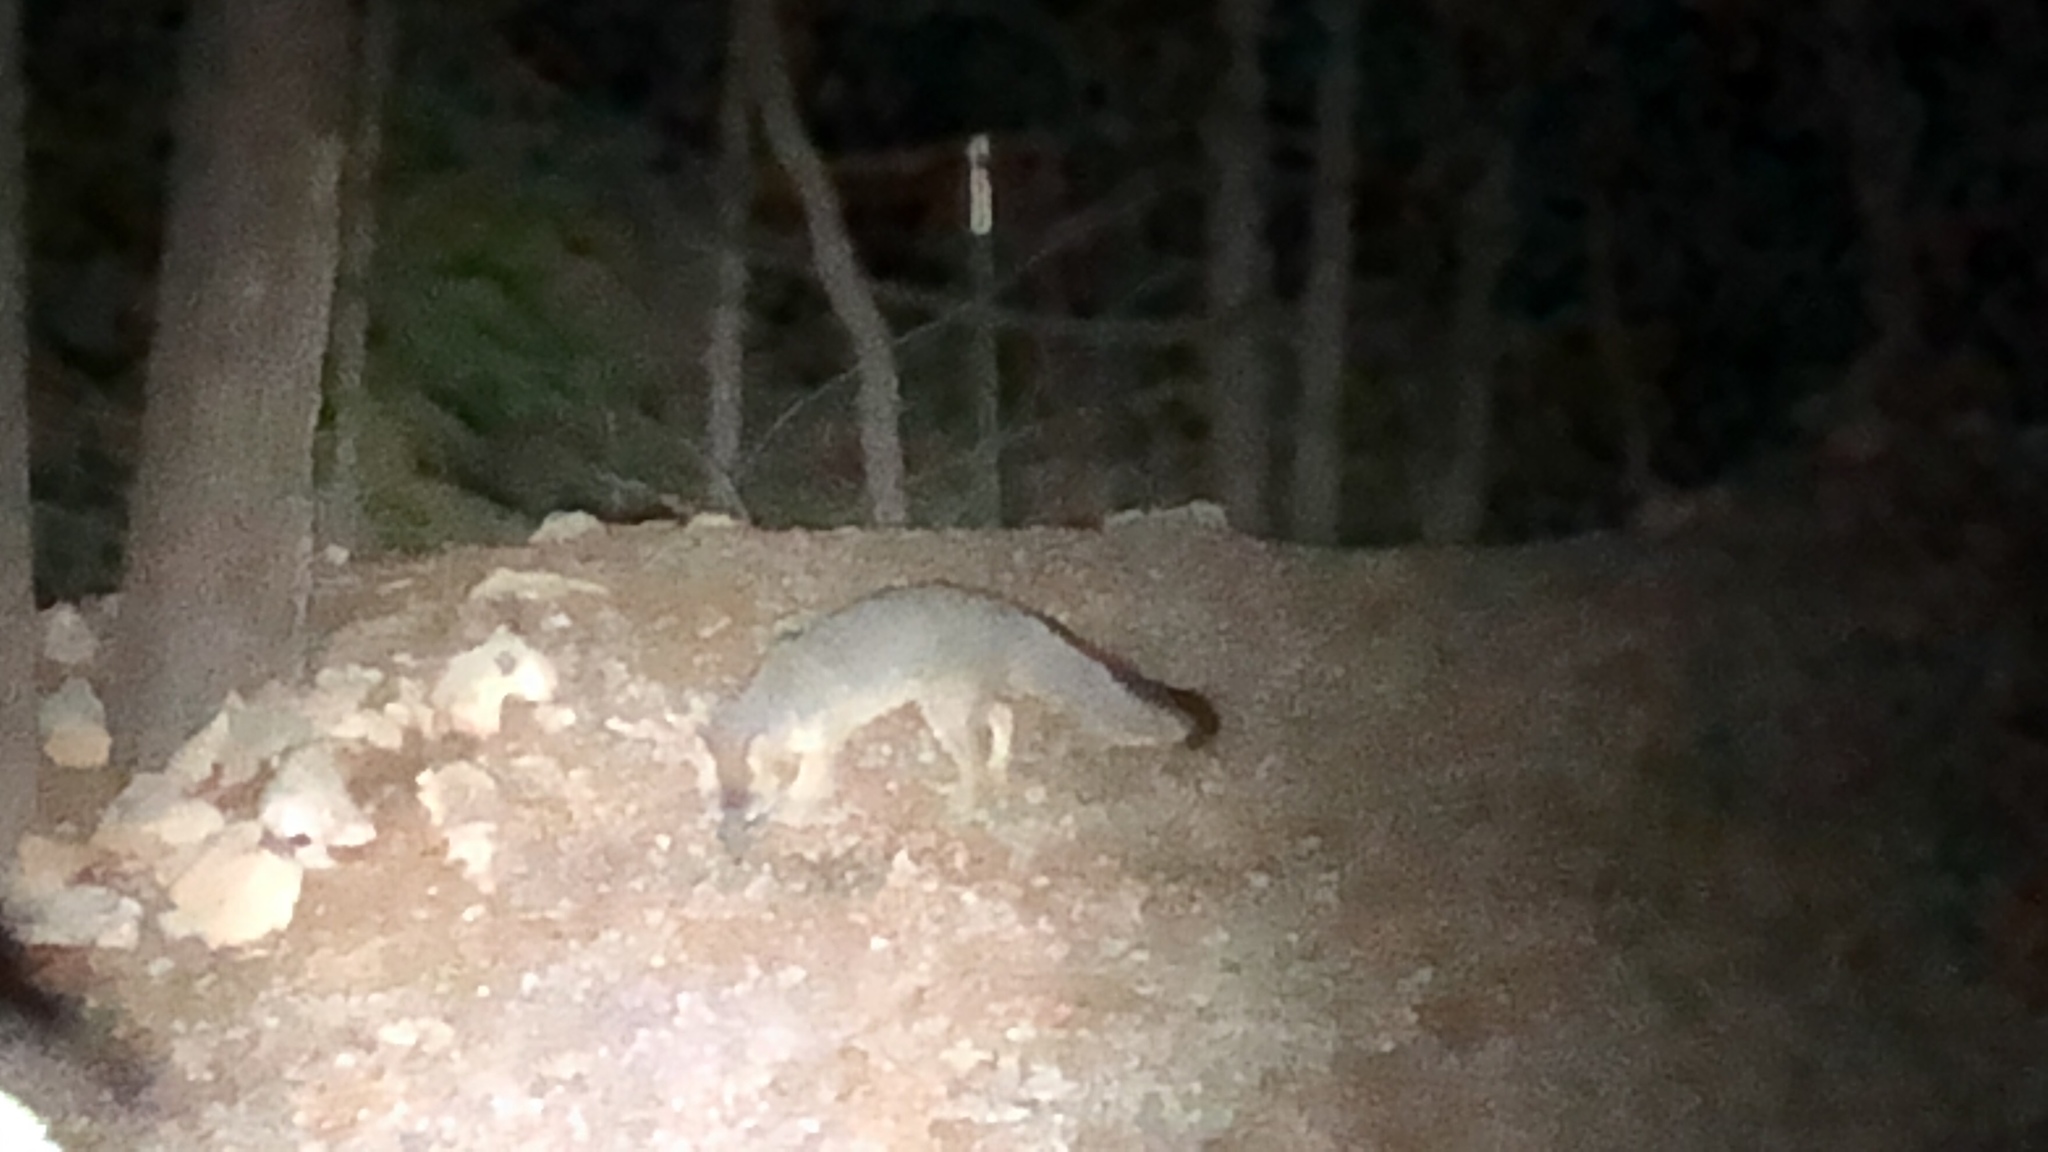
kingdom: Animalia
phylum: Chordata
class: Mammalia
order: Carnivora
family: Canidae
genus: Urocyon
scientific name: Urocyon cinereoargenteus
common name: Gray fox
